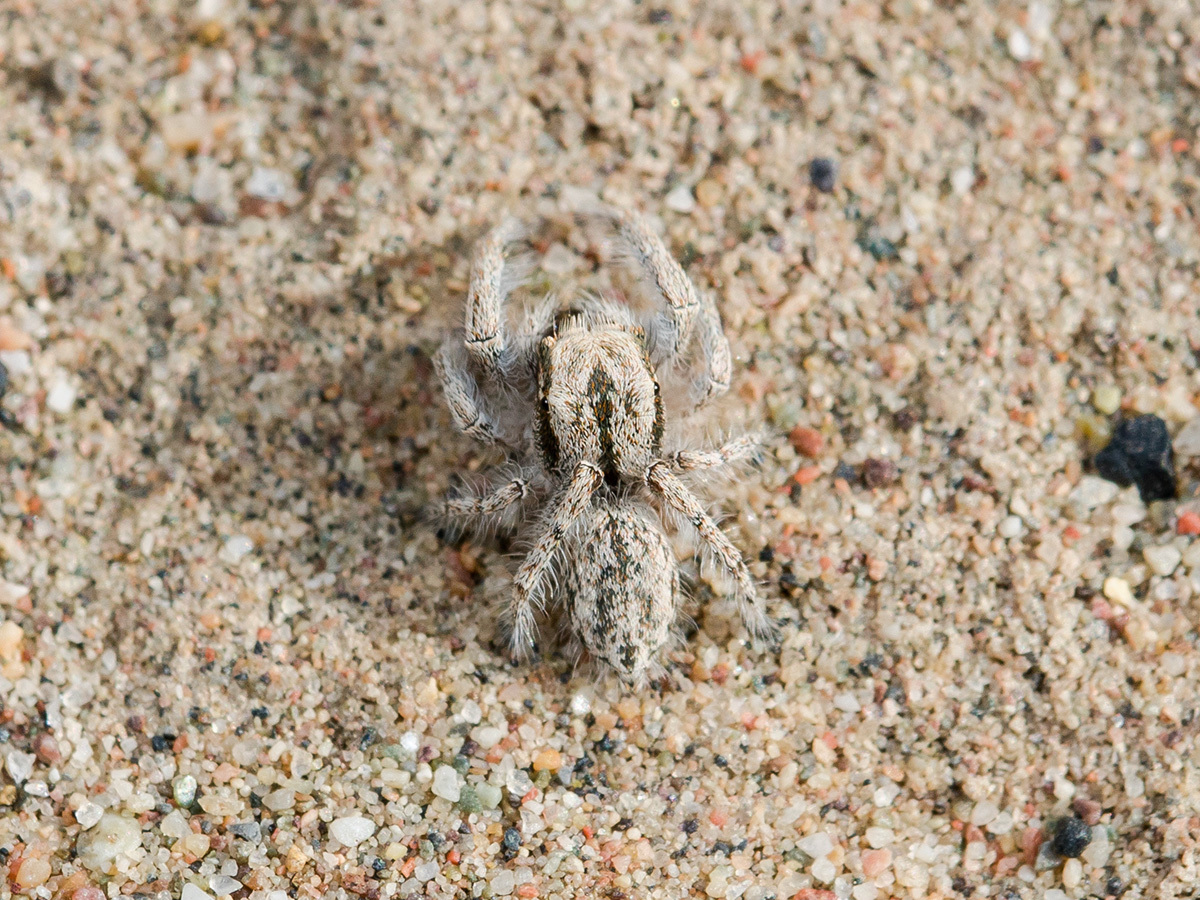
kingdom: Animalia
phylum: Arthropoda
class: Arachnida
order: Araneae
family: Salticidae
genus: Marusyllus
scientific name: Marusyllus aralicus
